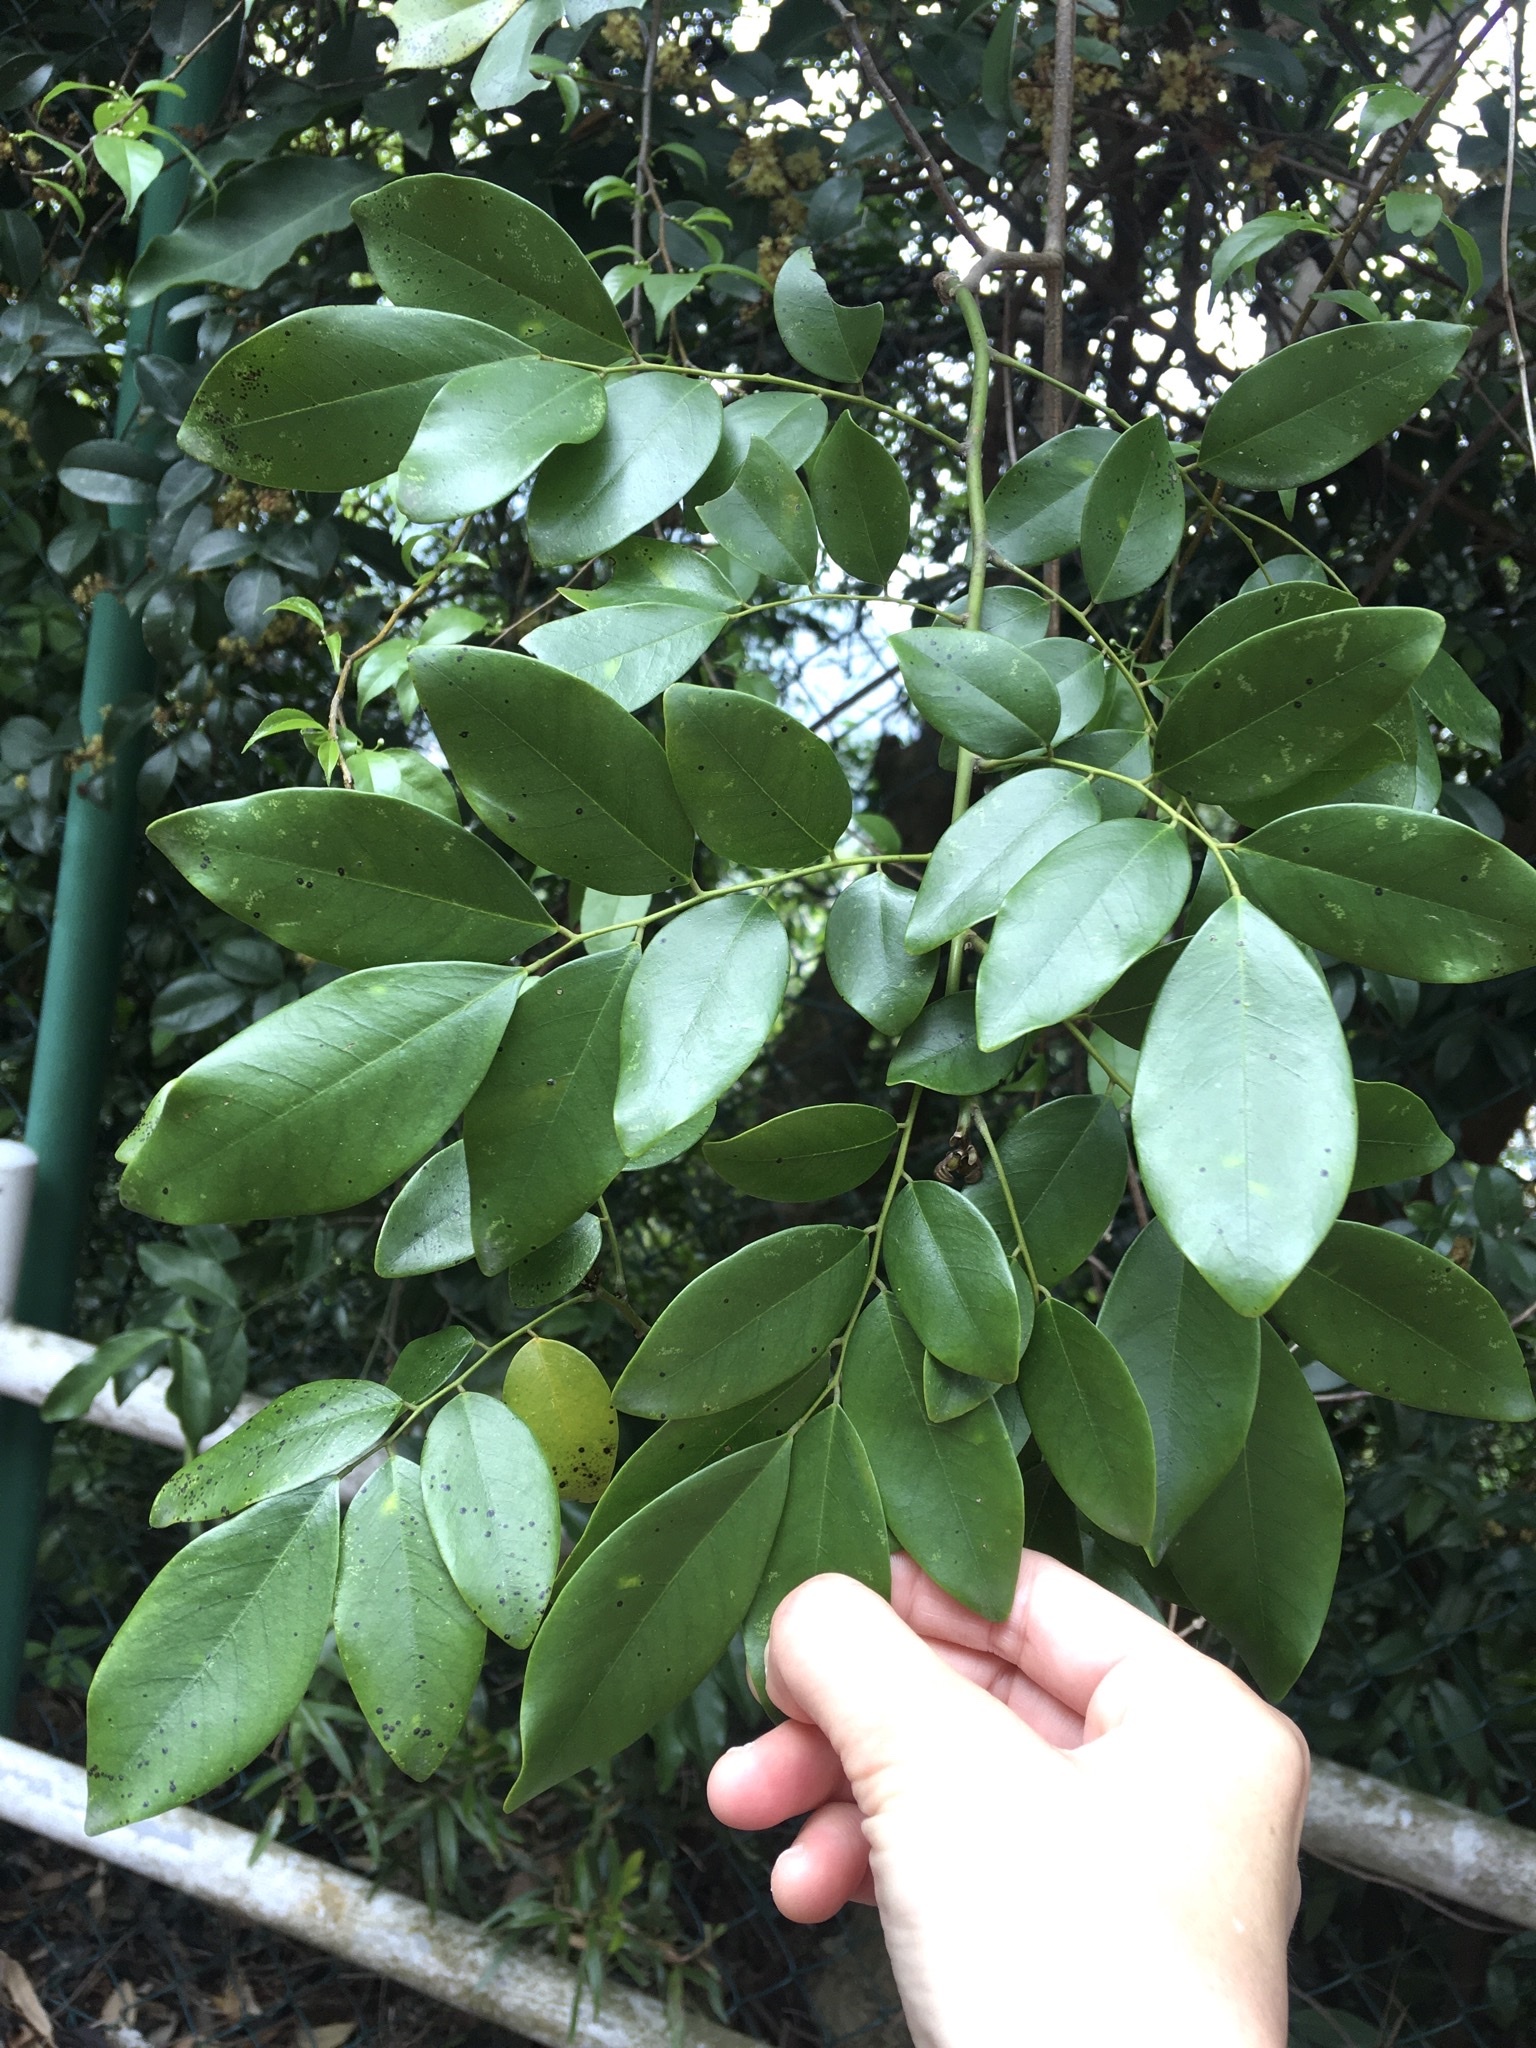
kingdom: Plantae
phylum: Tracheophyta
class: Magnoliopsida
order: Fabales
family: Fabaceae
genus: Dalbergia
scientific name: Dalbergia benthamii
